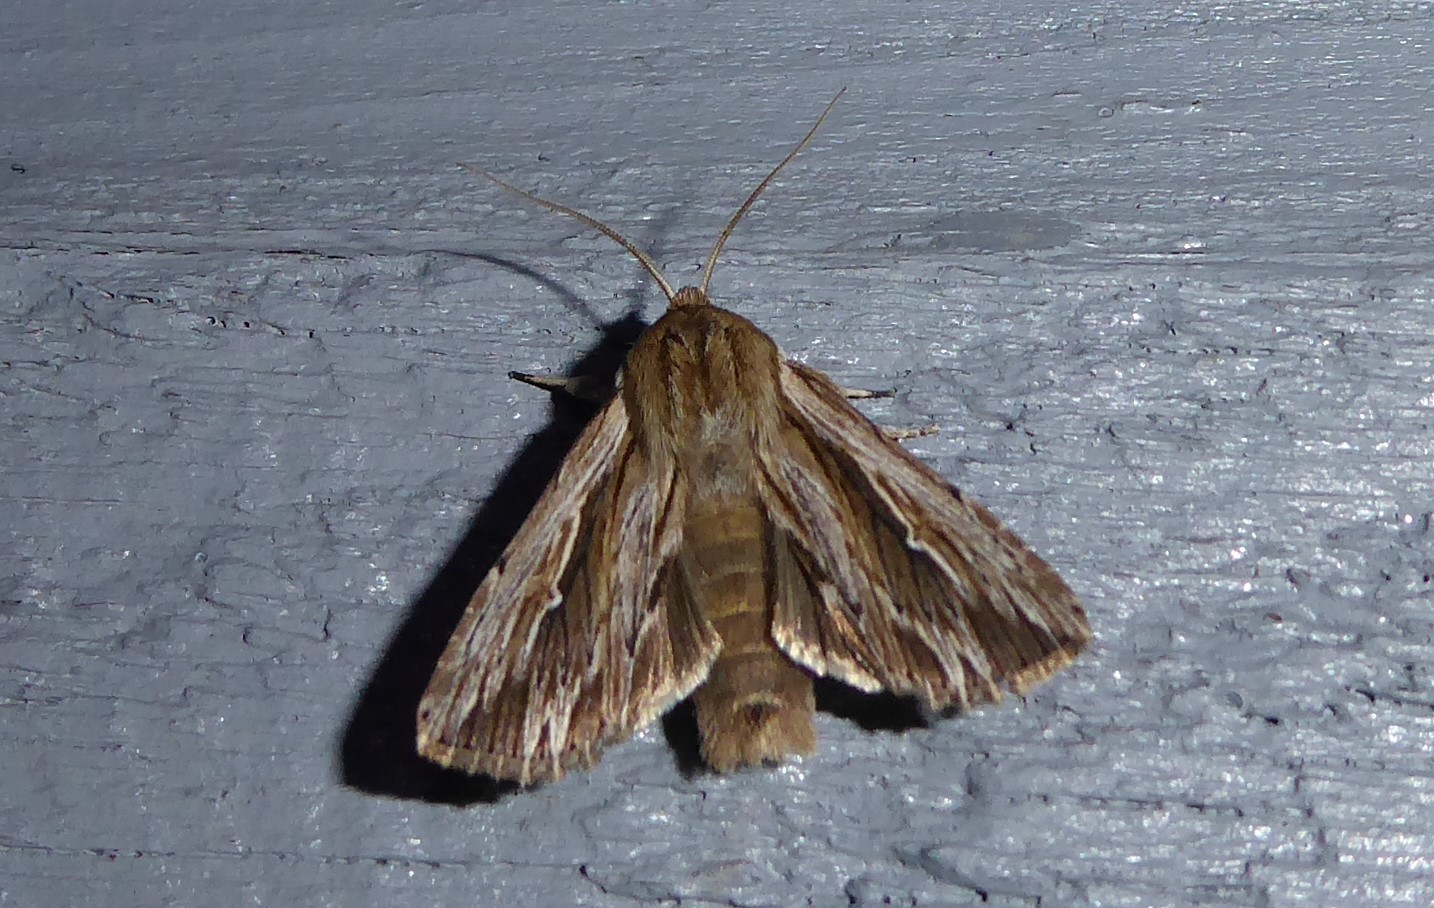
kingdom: Animalia
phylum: Arthropoda
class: Insecta
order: Lepidoptera
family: Noctuidae
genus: Persectania
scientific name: Persectania aversa
